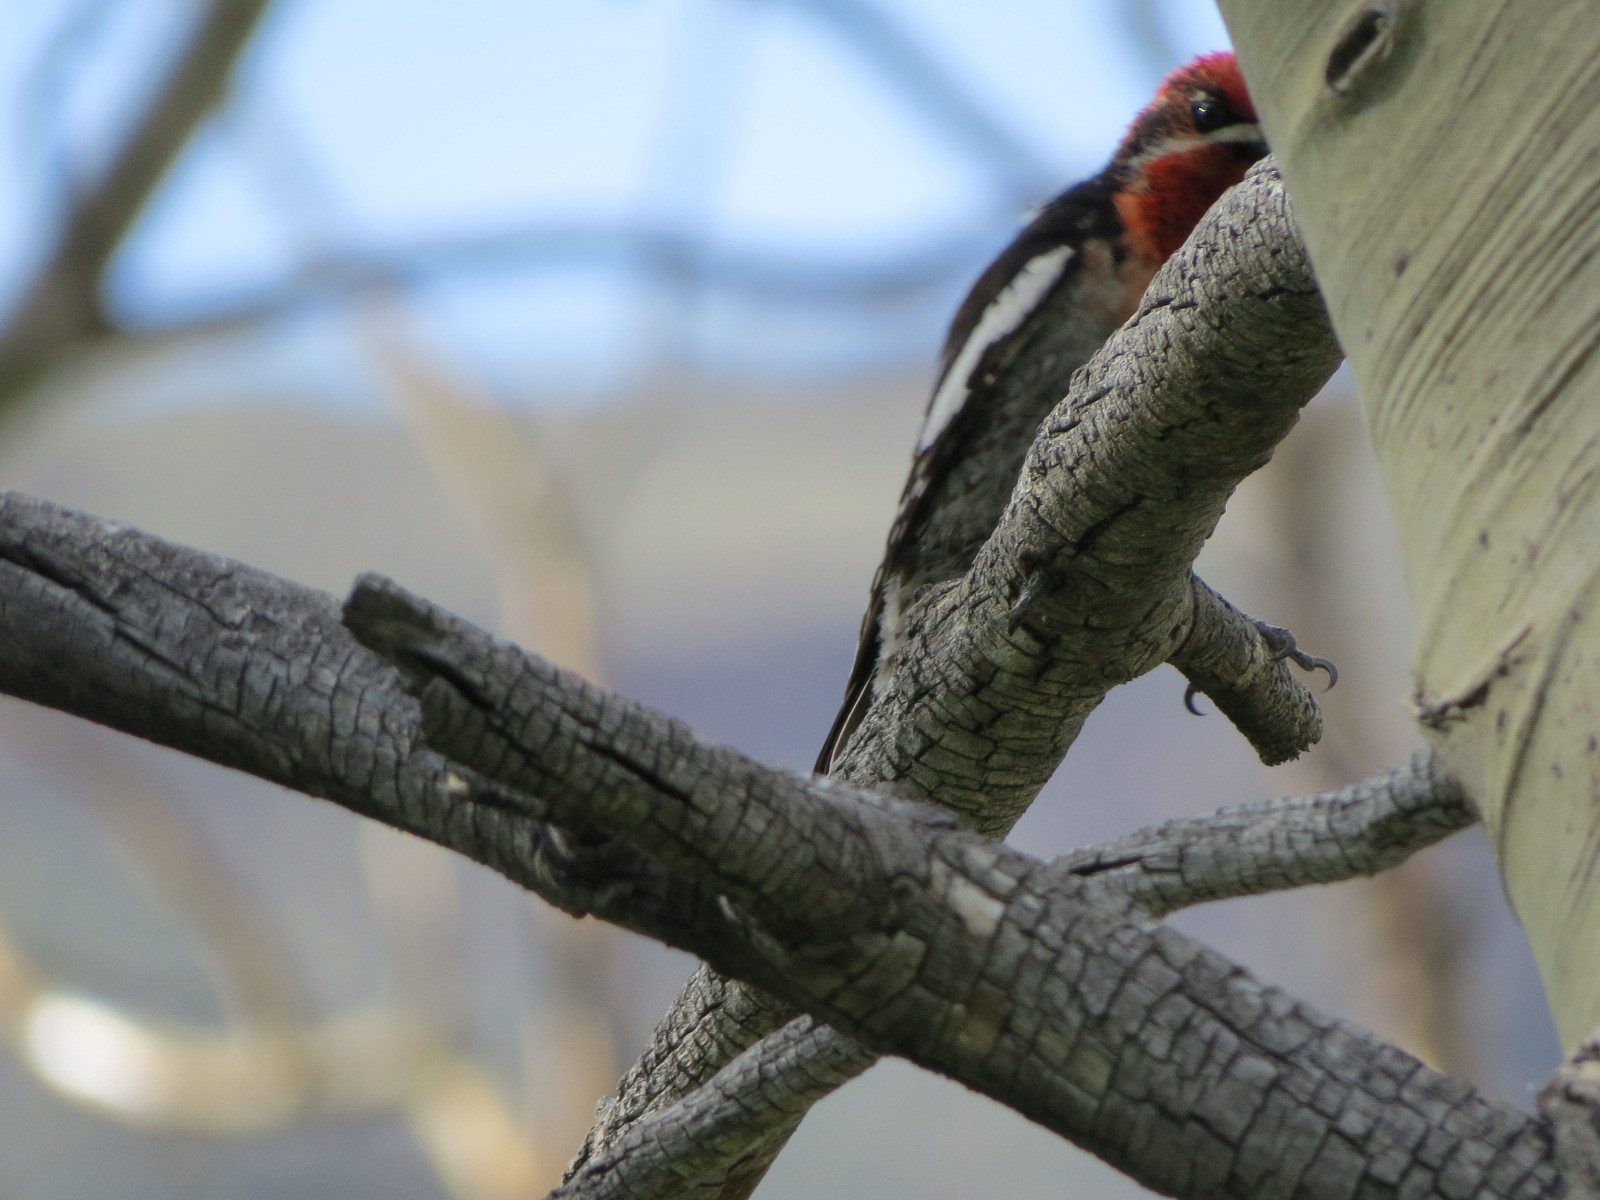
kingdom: Animalia
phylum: Chordata
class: Aves
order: Piciformes
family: Picidae
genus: Sphyrapicus
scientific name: Sphyrapicus ruber
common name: Red-breasted sapsucker
